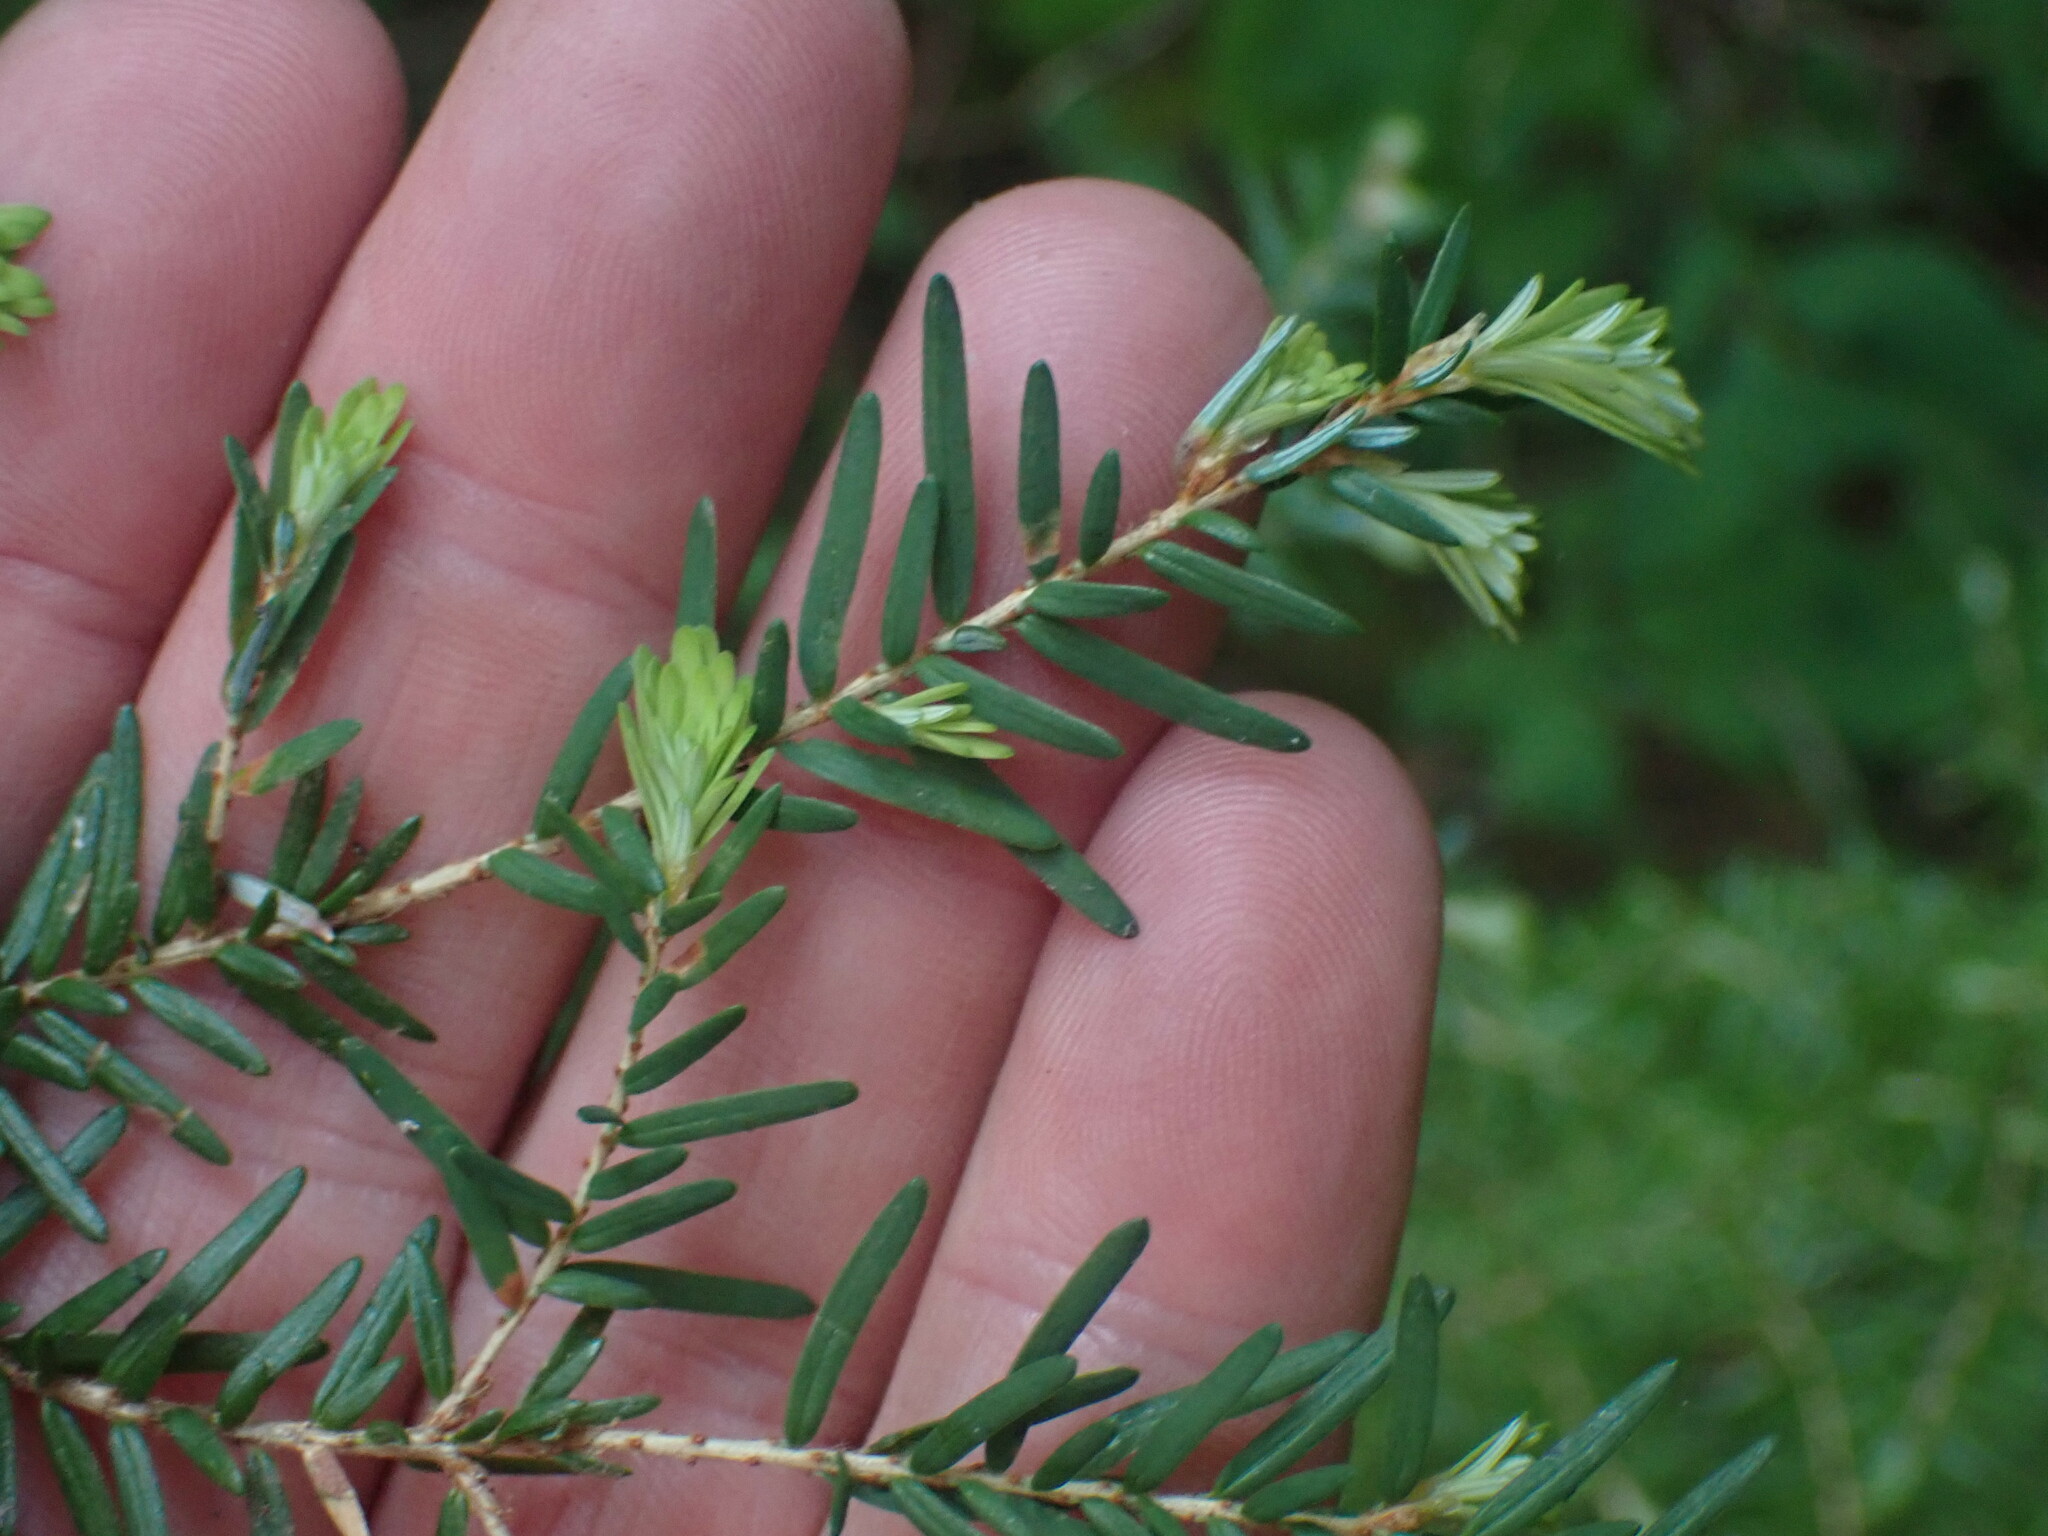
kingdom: Plantae
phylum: Tracheophyta
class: Pinopsida
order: Pinales
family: Pinaceae
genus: Tsuga
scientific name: Tsuga heterophylla
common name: Western hemlock
